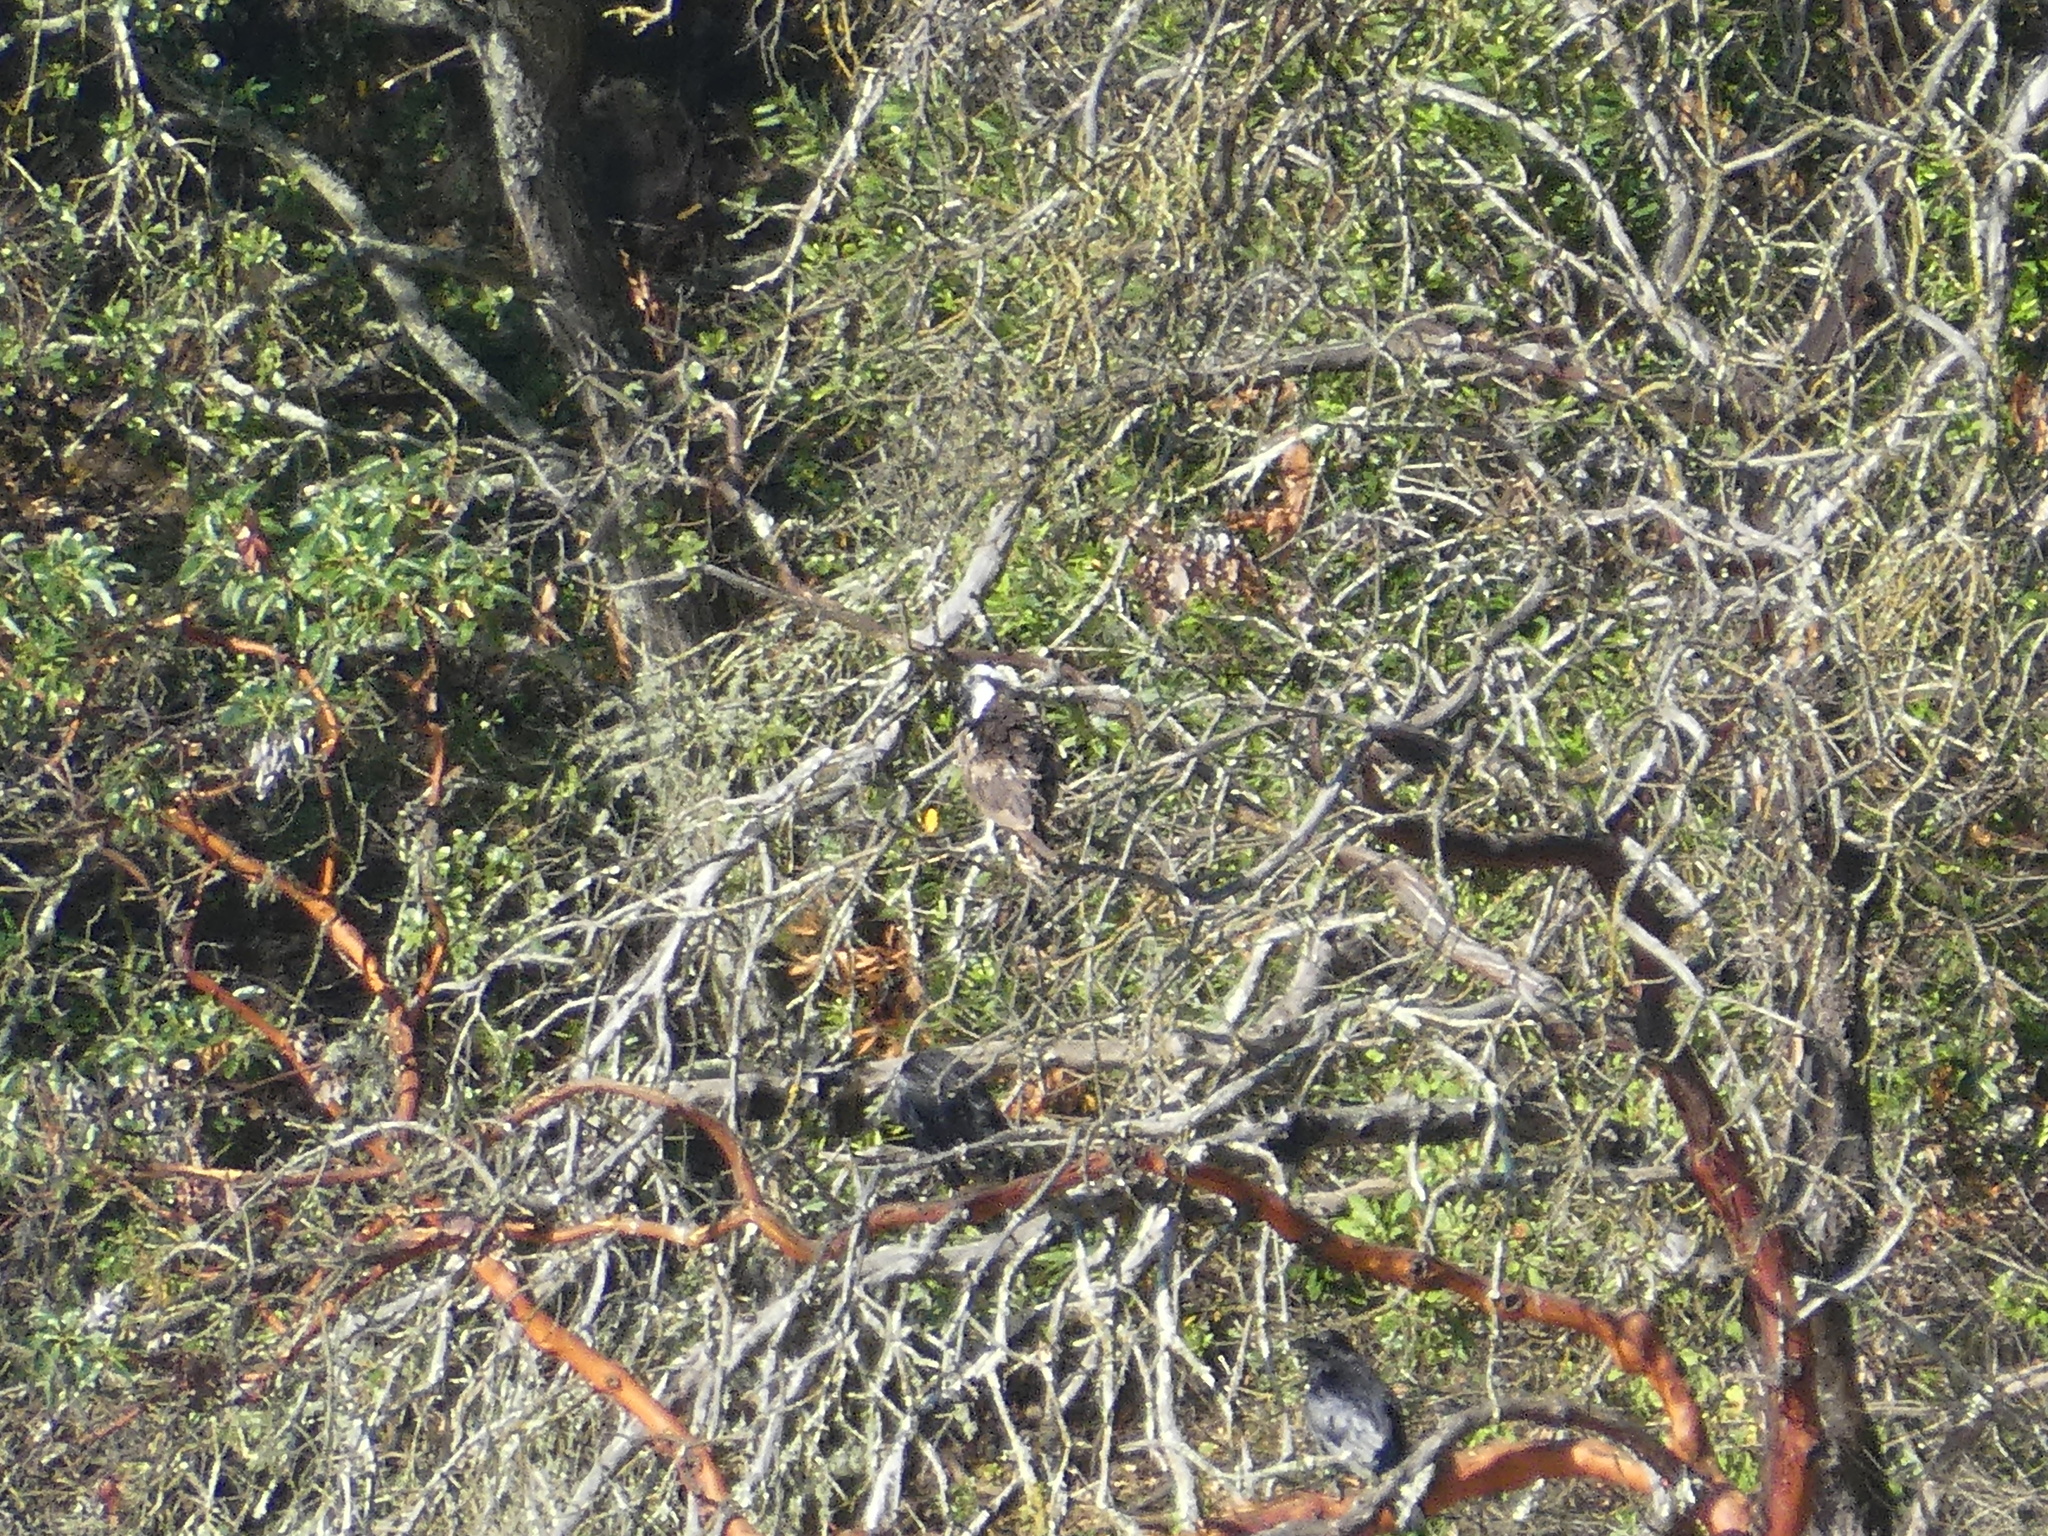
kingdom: Animalia
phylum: Chordata
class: Aves
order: Accipitriformes
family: Pandionidae
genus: Pandion
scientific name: Pandion haliaetus
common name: Osprey
